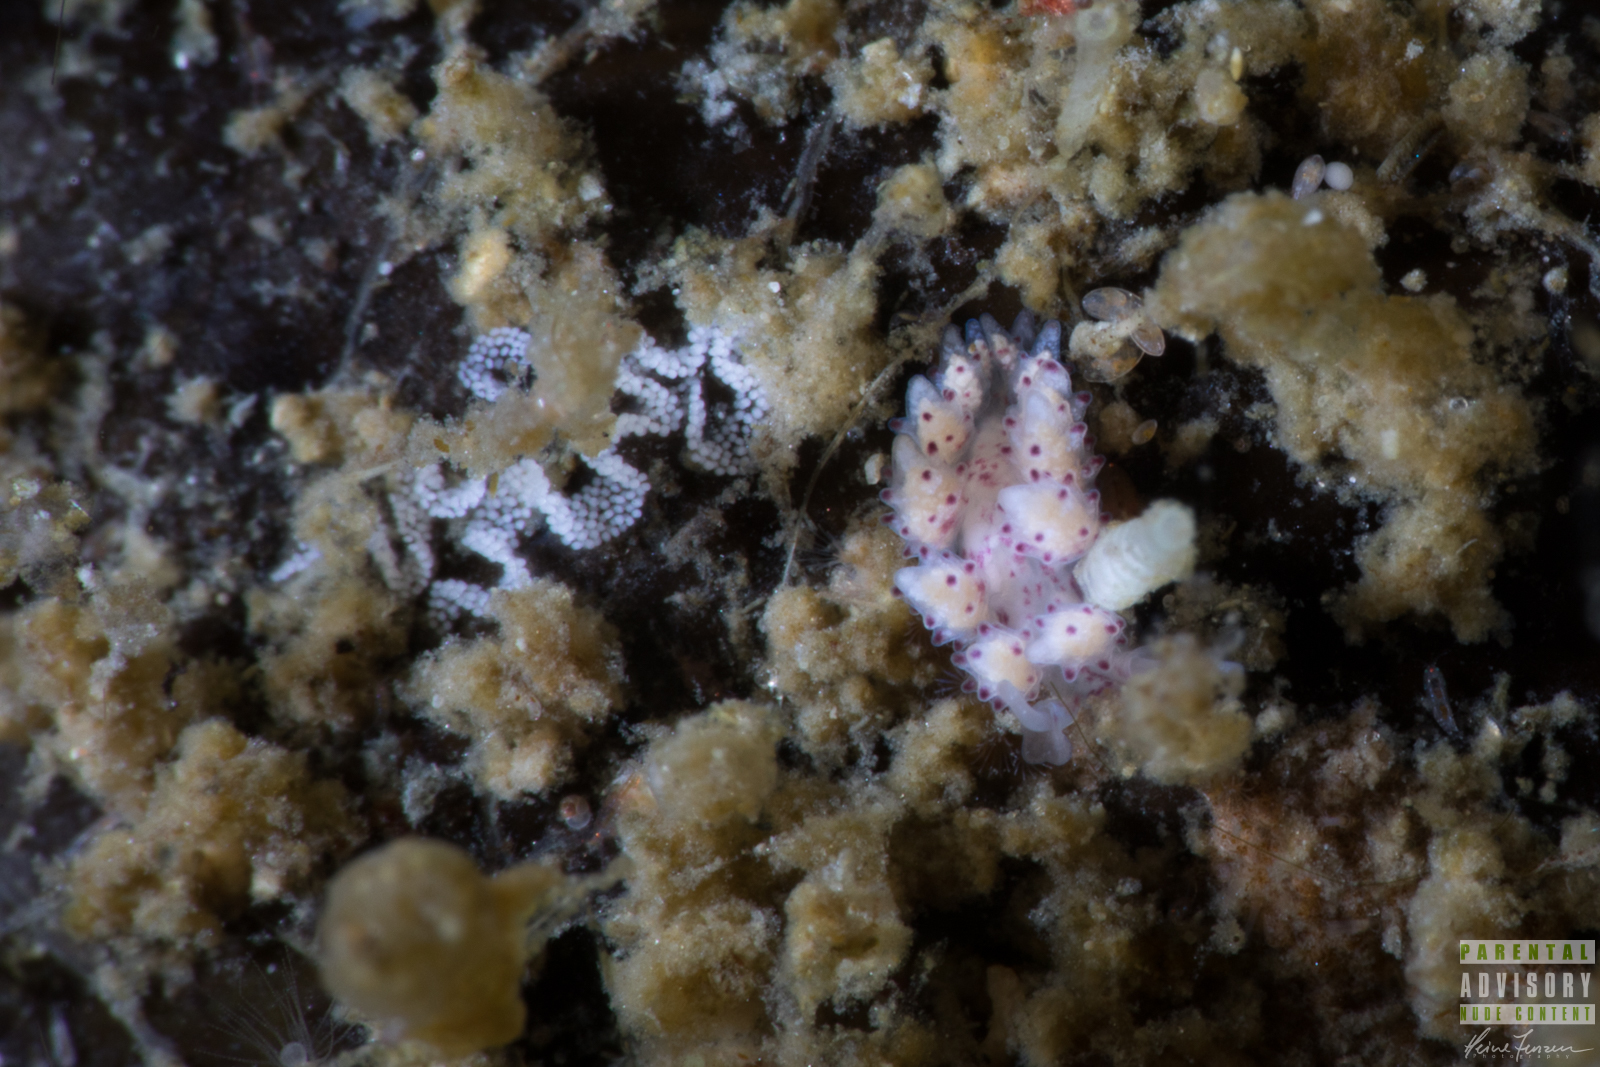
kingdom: Animalia
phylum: Mollusca
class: Gastropoda
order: Nudibranchia
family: Dotidae
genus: Doto
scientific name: Doto coronata
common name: Coronate doto
